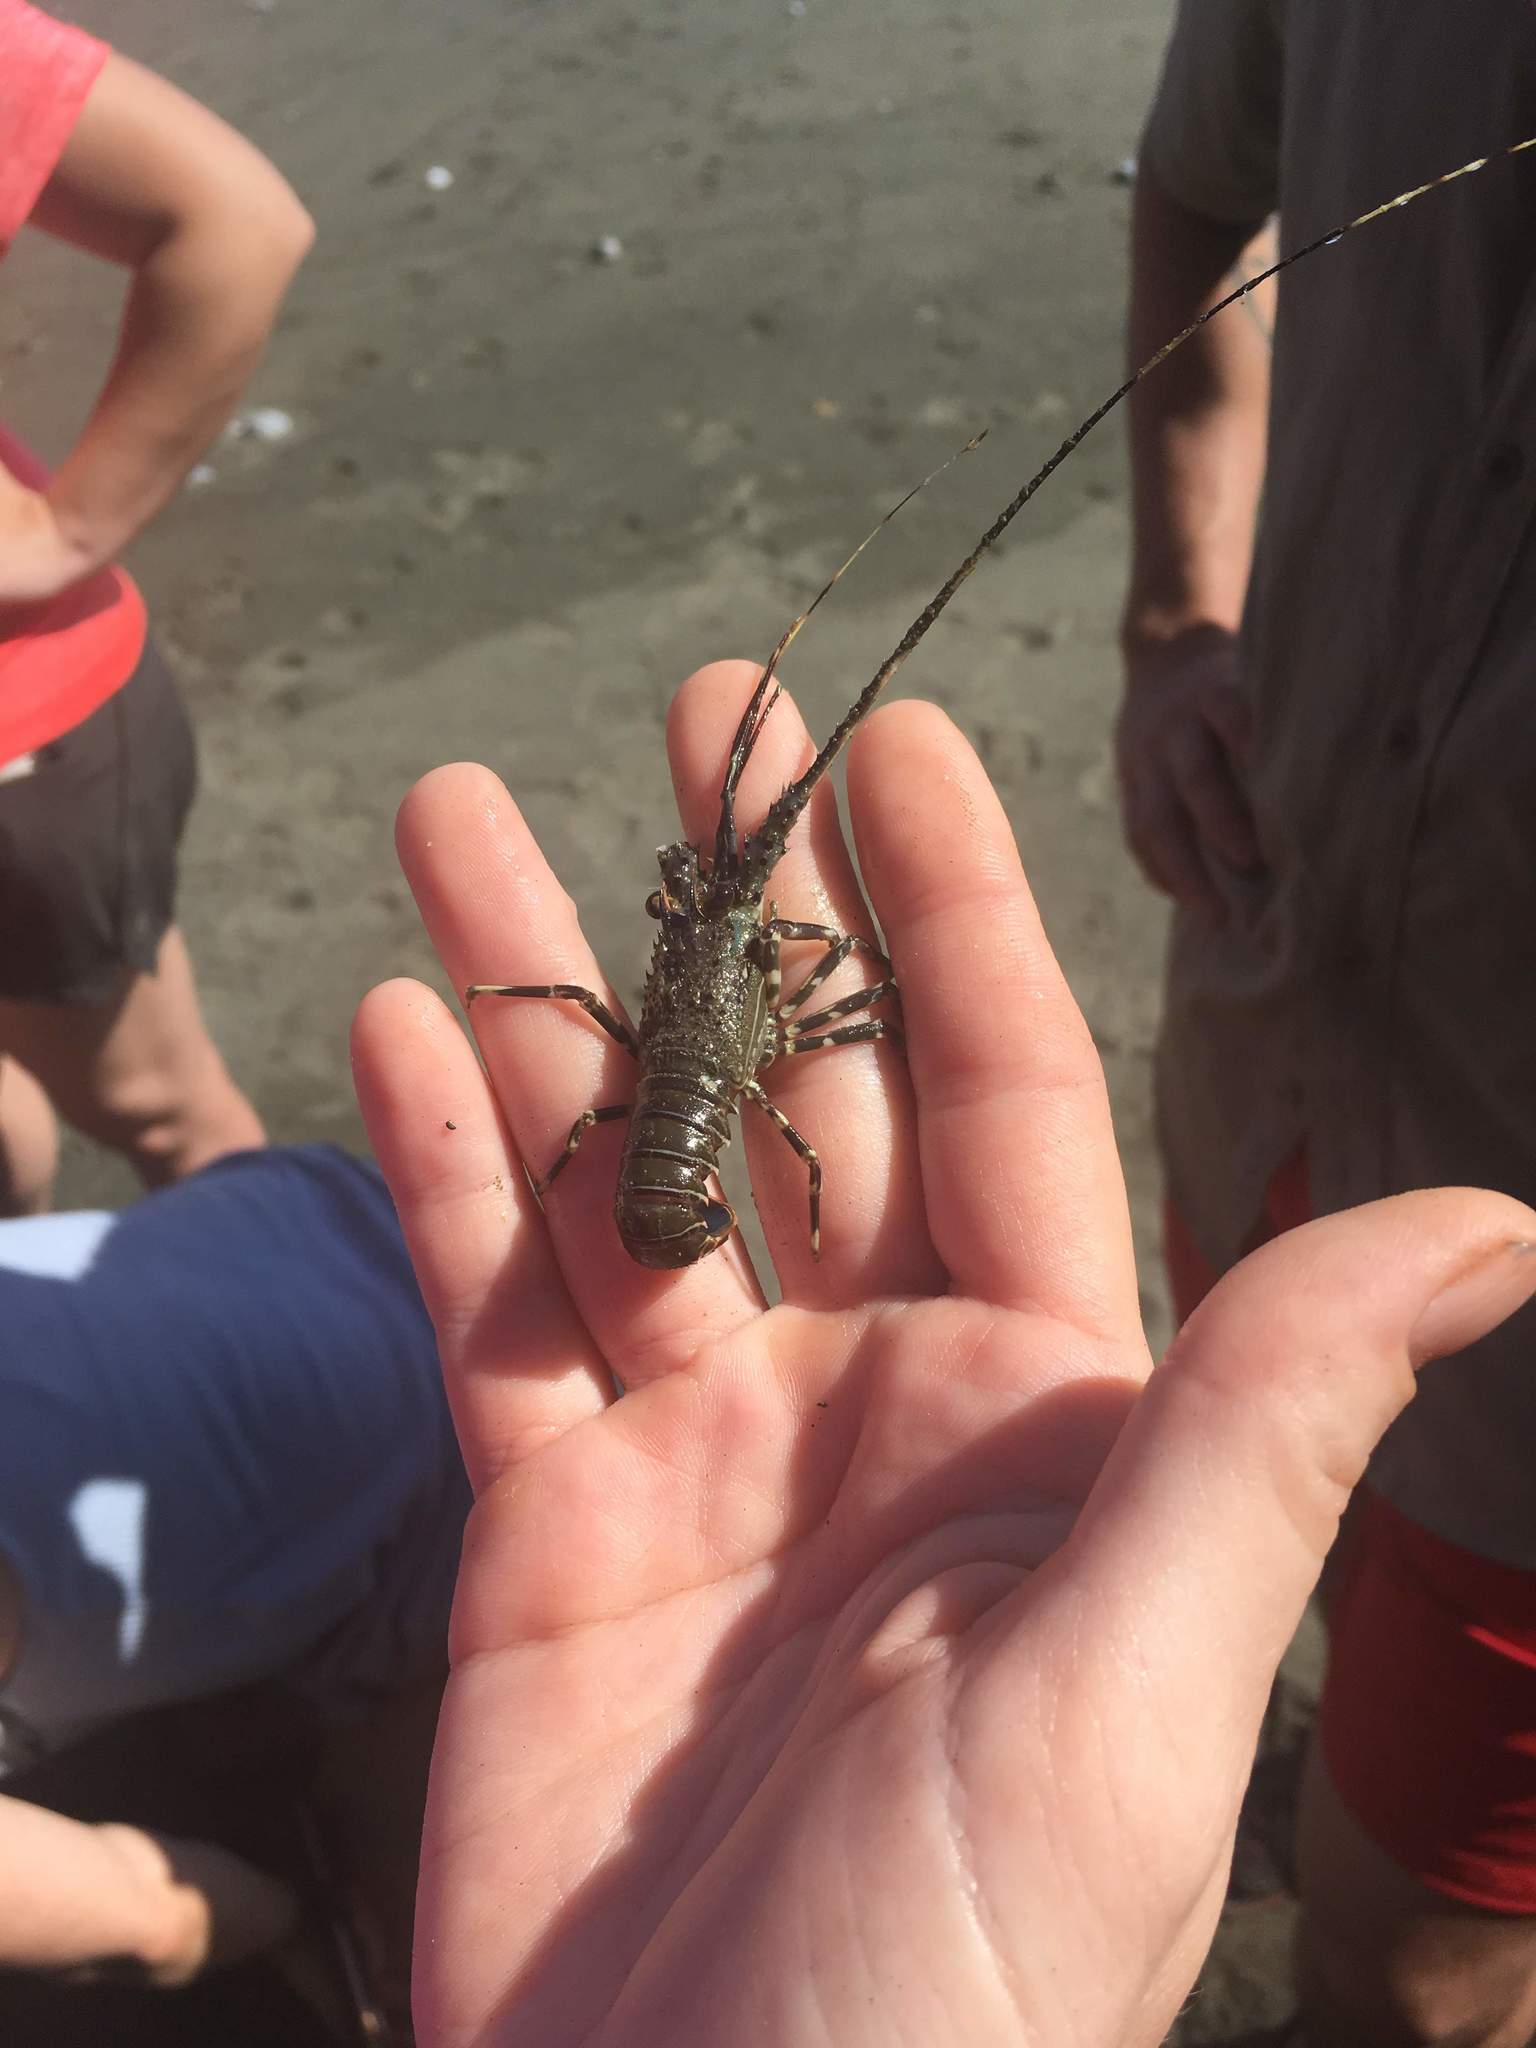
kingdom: Animalia
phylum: Arthropoda
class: Malacostraca
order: Decapoda
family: Palinuridae
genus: Panulirus
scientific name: Panulirus gracilis
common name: Green spiny lobster
